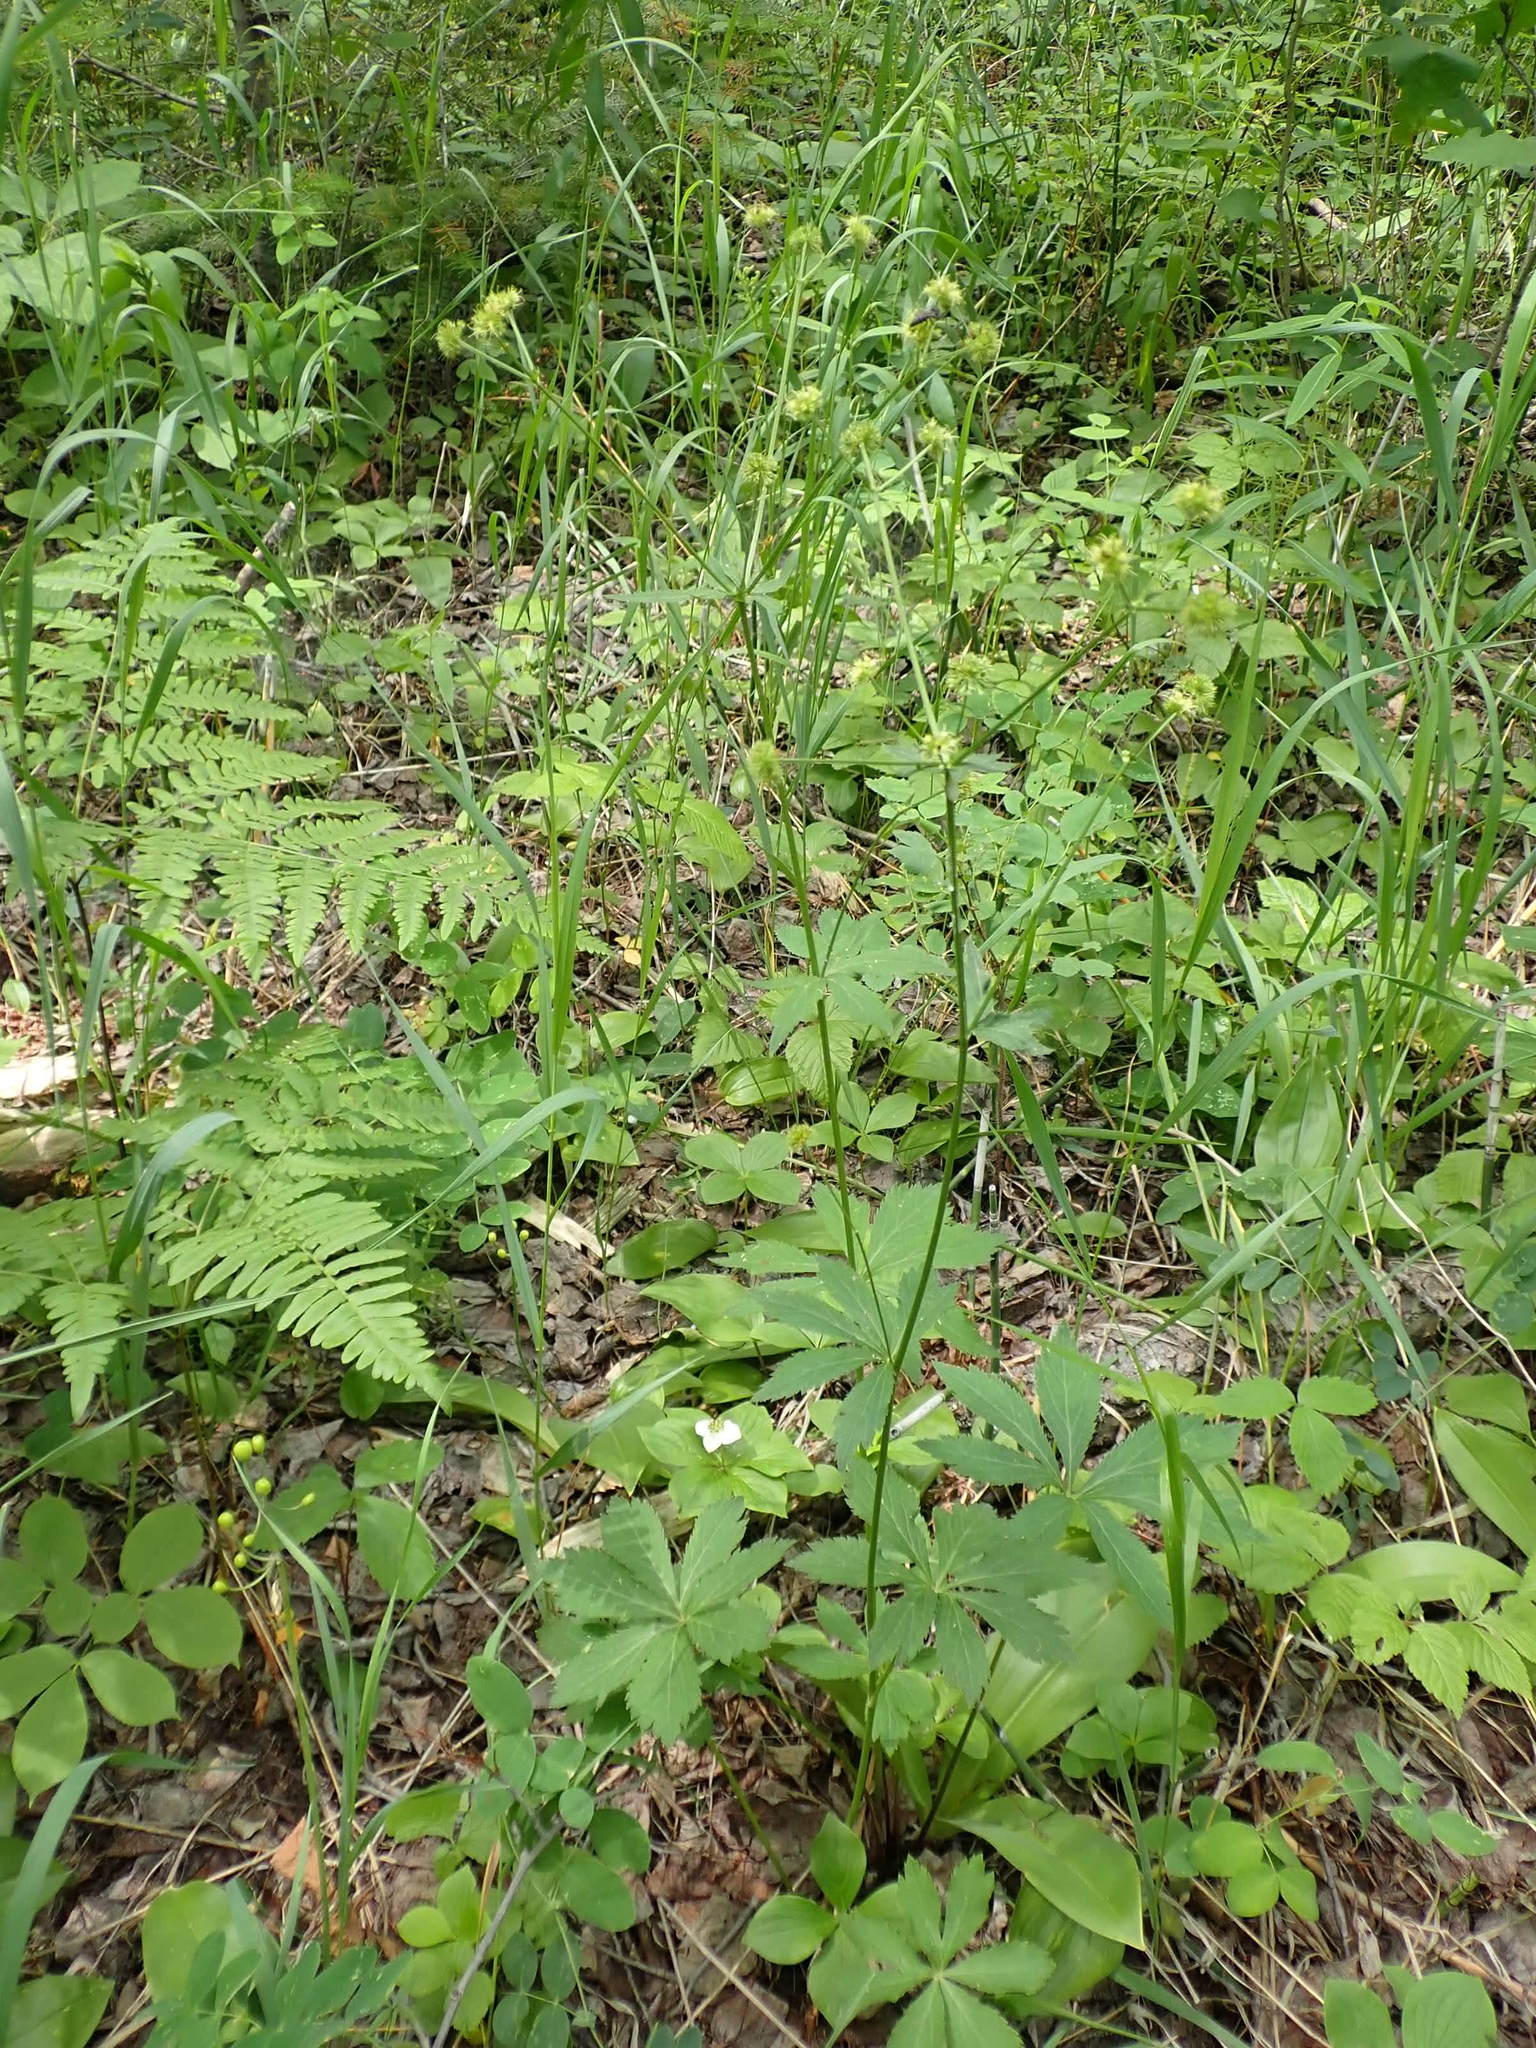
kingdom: Plantae
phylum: Tracheophyta
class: Magnoliopsida
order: Apiales
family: Apiaceae
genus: Sanicula
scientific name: Sanicula marilandica
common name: Black snakeroot
